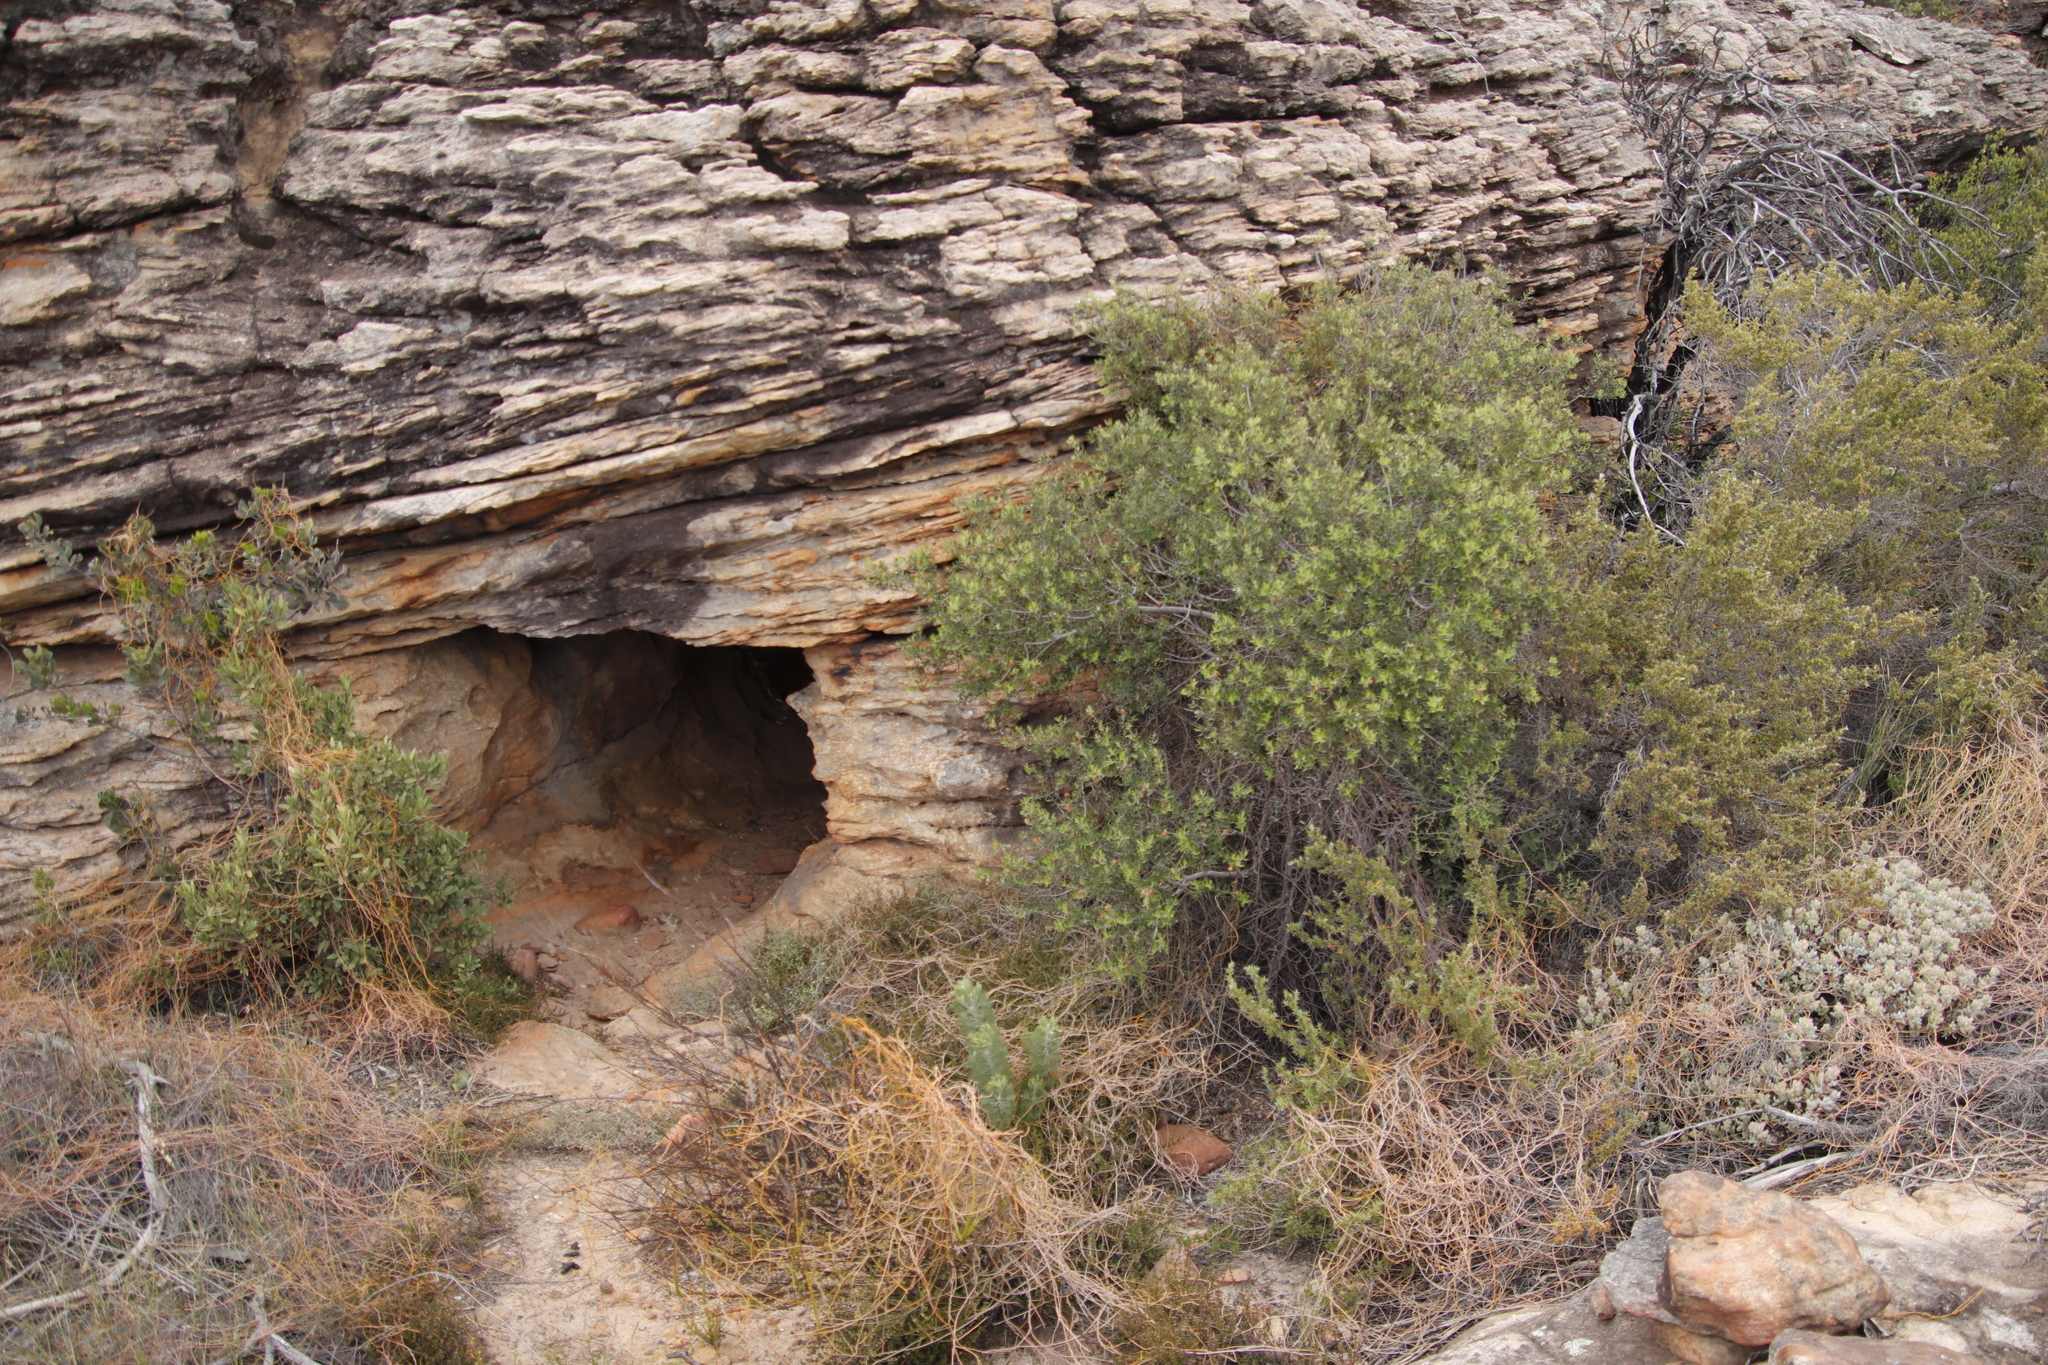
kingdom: Plantae
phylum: Tracheophyta
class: Magnoliopsida
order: Laurales
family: Lauraceae
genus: Cassytha
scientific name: Cassytha ciliolata
